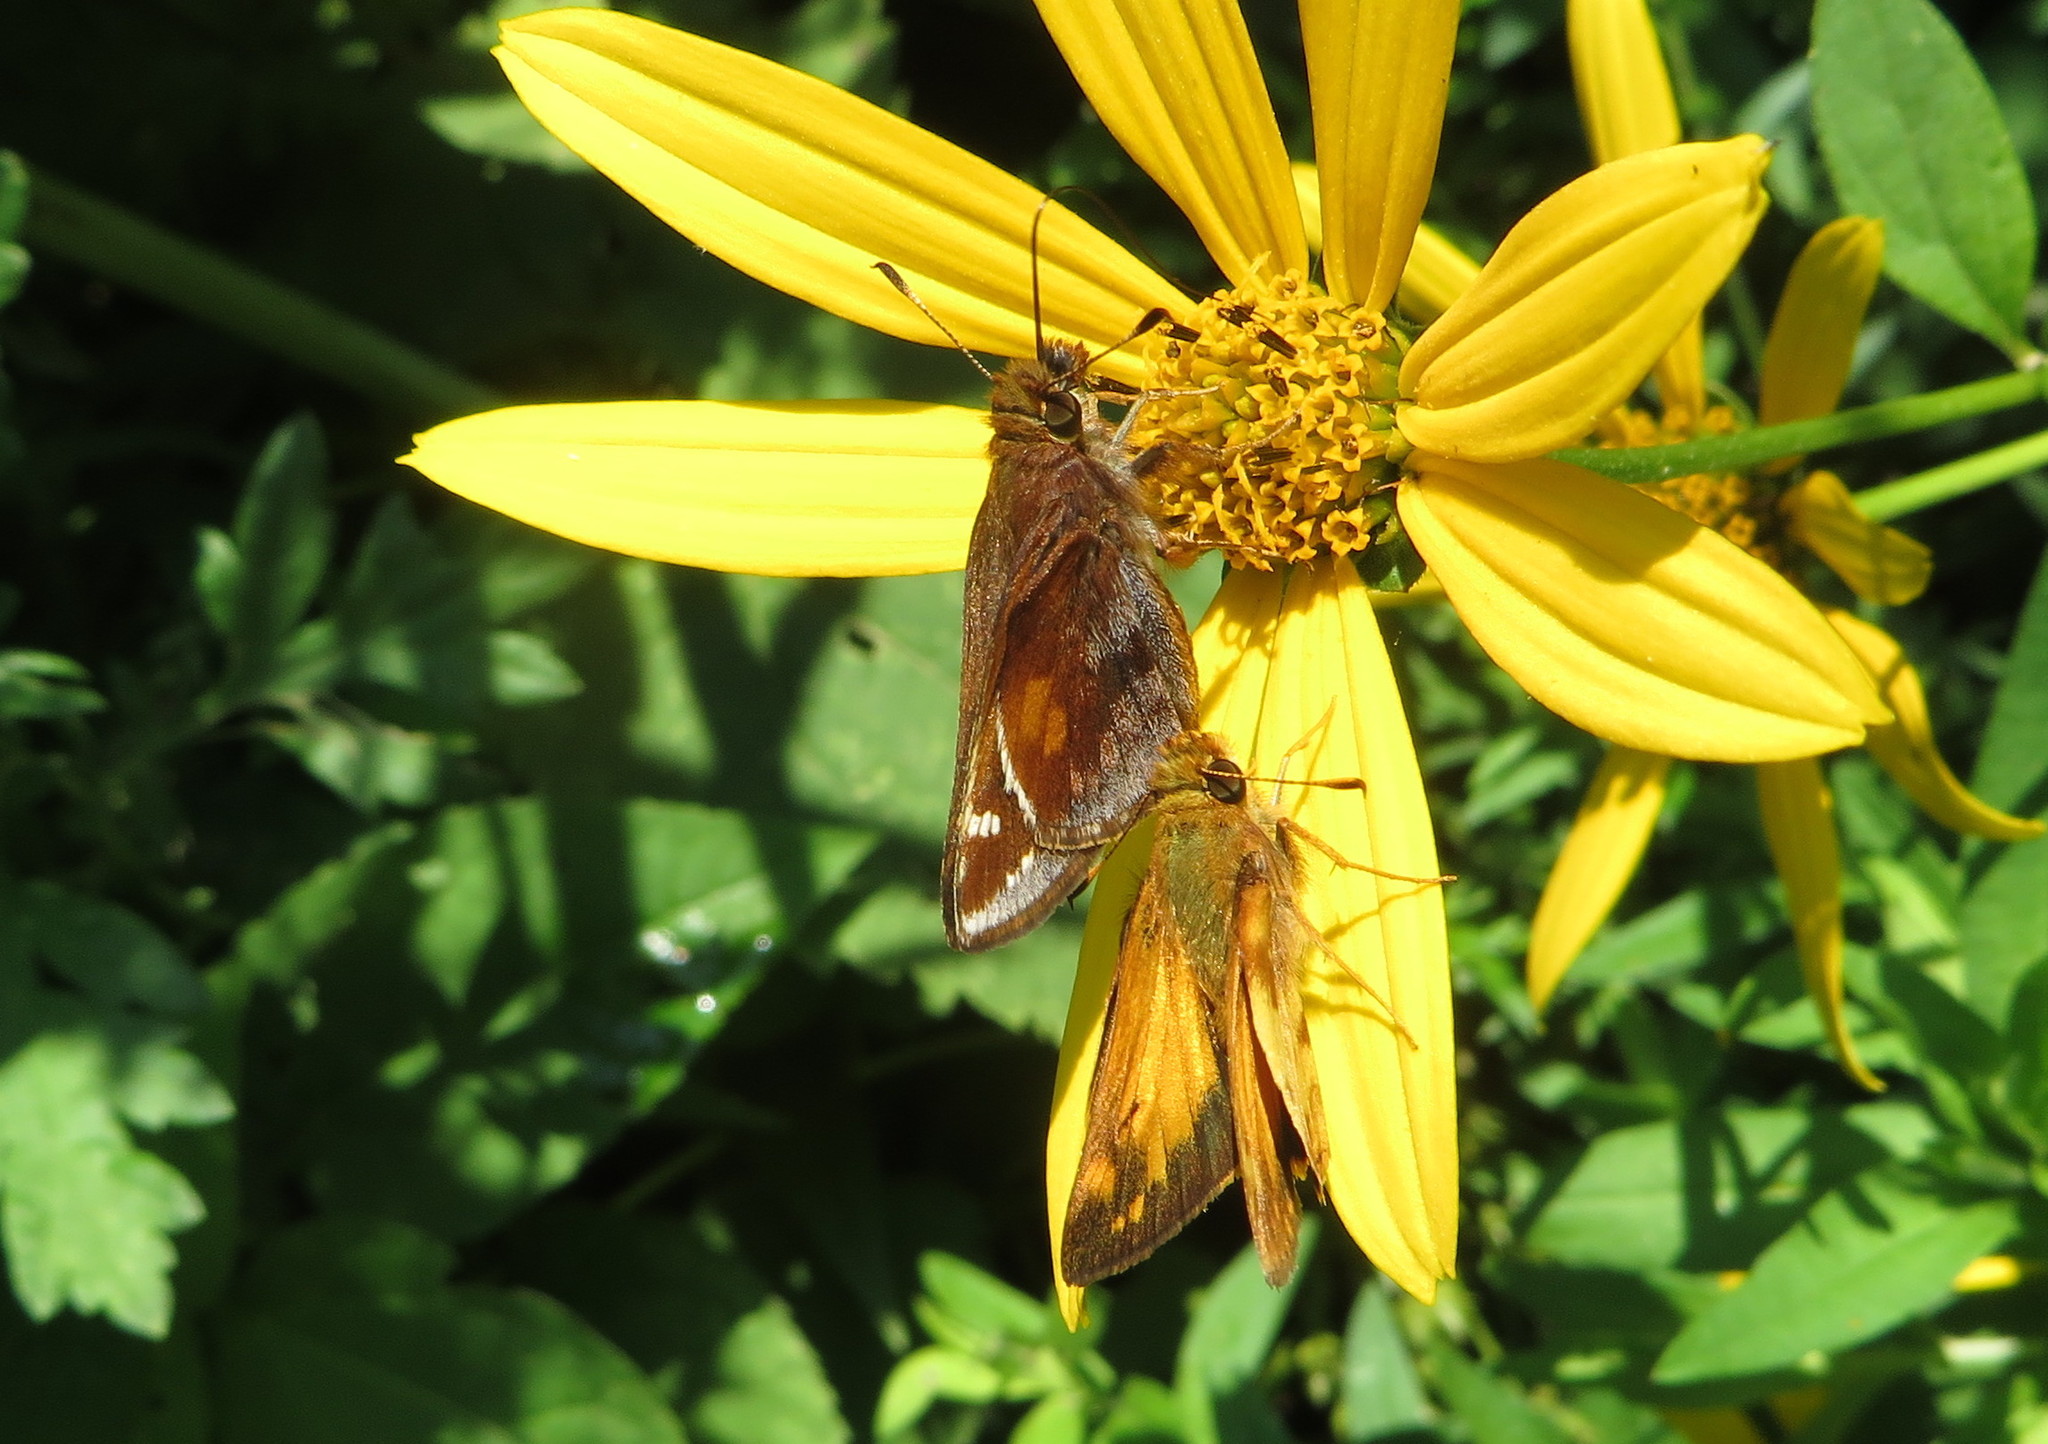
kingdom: Animalia
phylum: Arthropoda
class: Insecta
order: Lepidoptera
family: Hesperiidae
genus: Lon
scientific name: Lon zabulon
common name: Zabulon skipper
